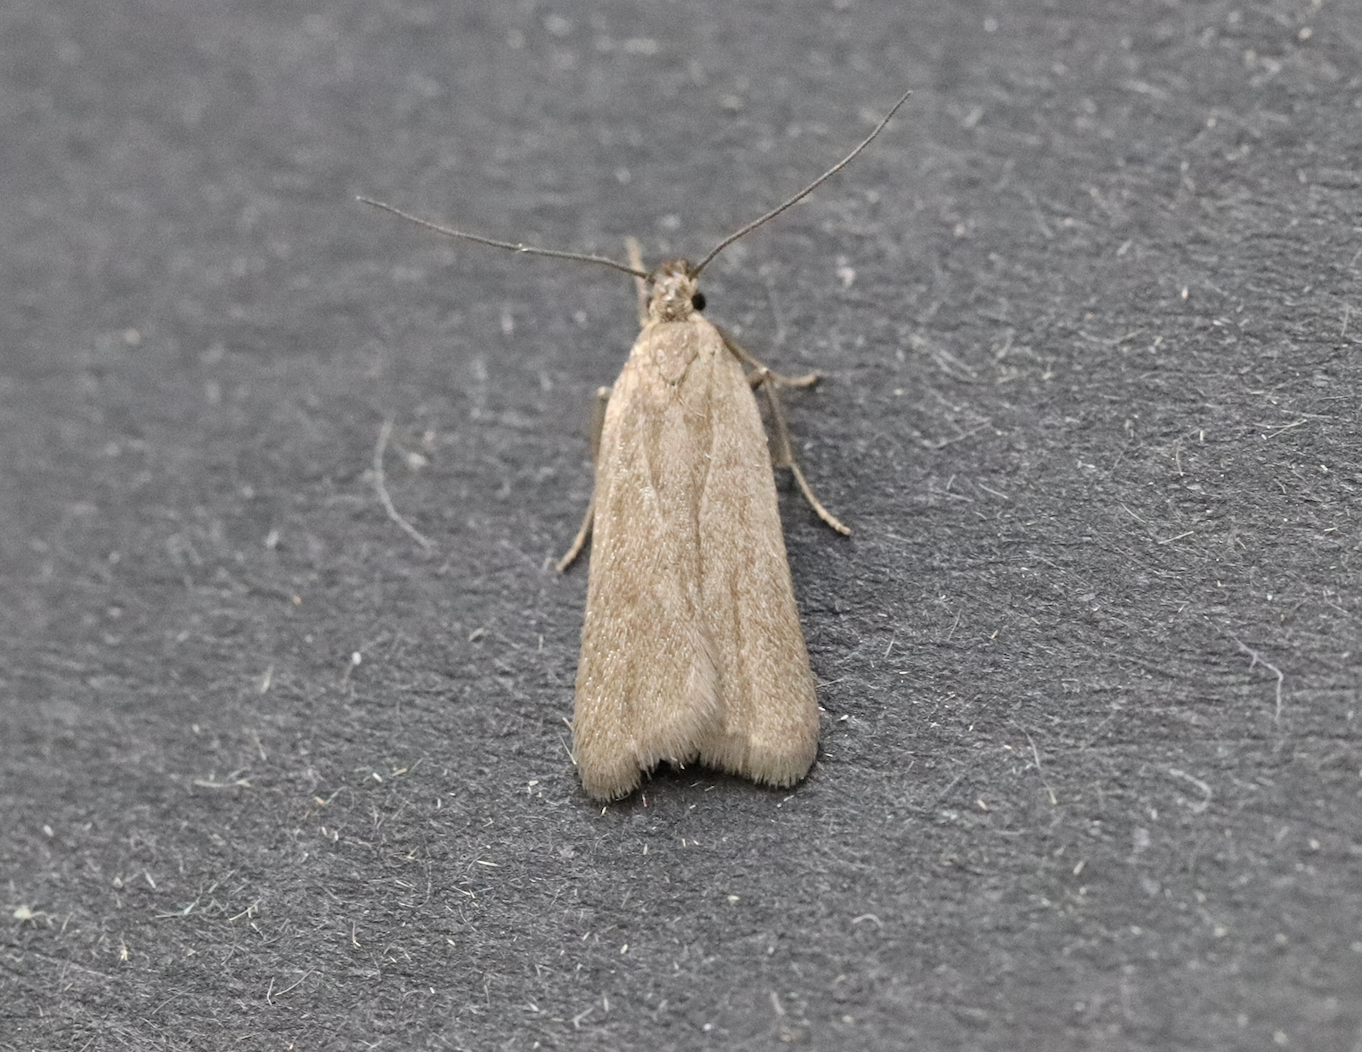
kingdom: Animalia
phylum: Arthropoda
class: Insecta
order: Lepidoptera
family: Gelechiidae
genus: Acompsia
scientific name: Acompsia cinerella
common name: Ash-coloured sober
